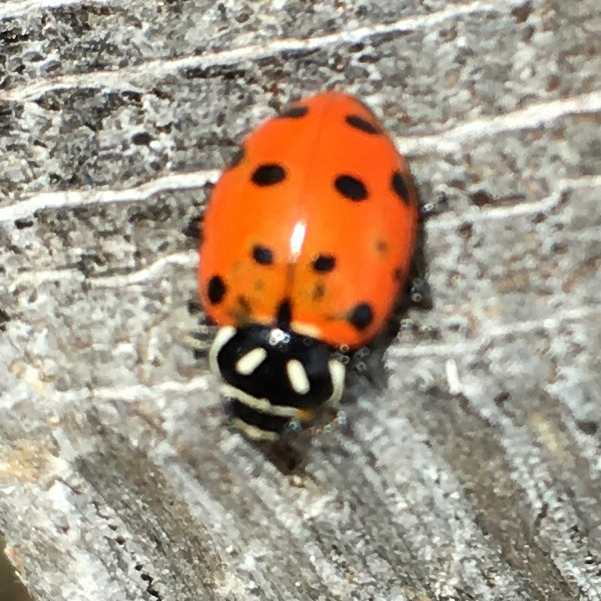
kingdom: Animalia
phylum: Arthropoda
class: Insecta
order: Coleoptera
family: Coccinellidae
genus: Hippodamia
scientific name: Hippodamia convergens
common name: Convergent lady beetle
